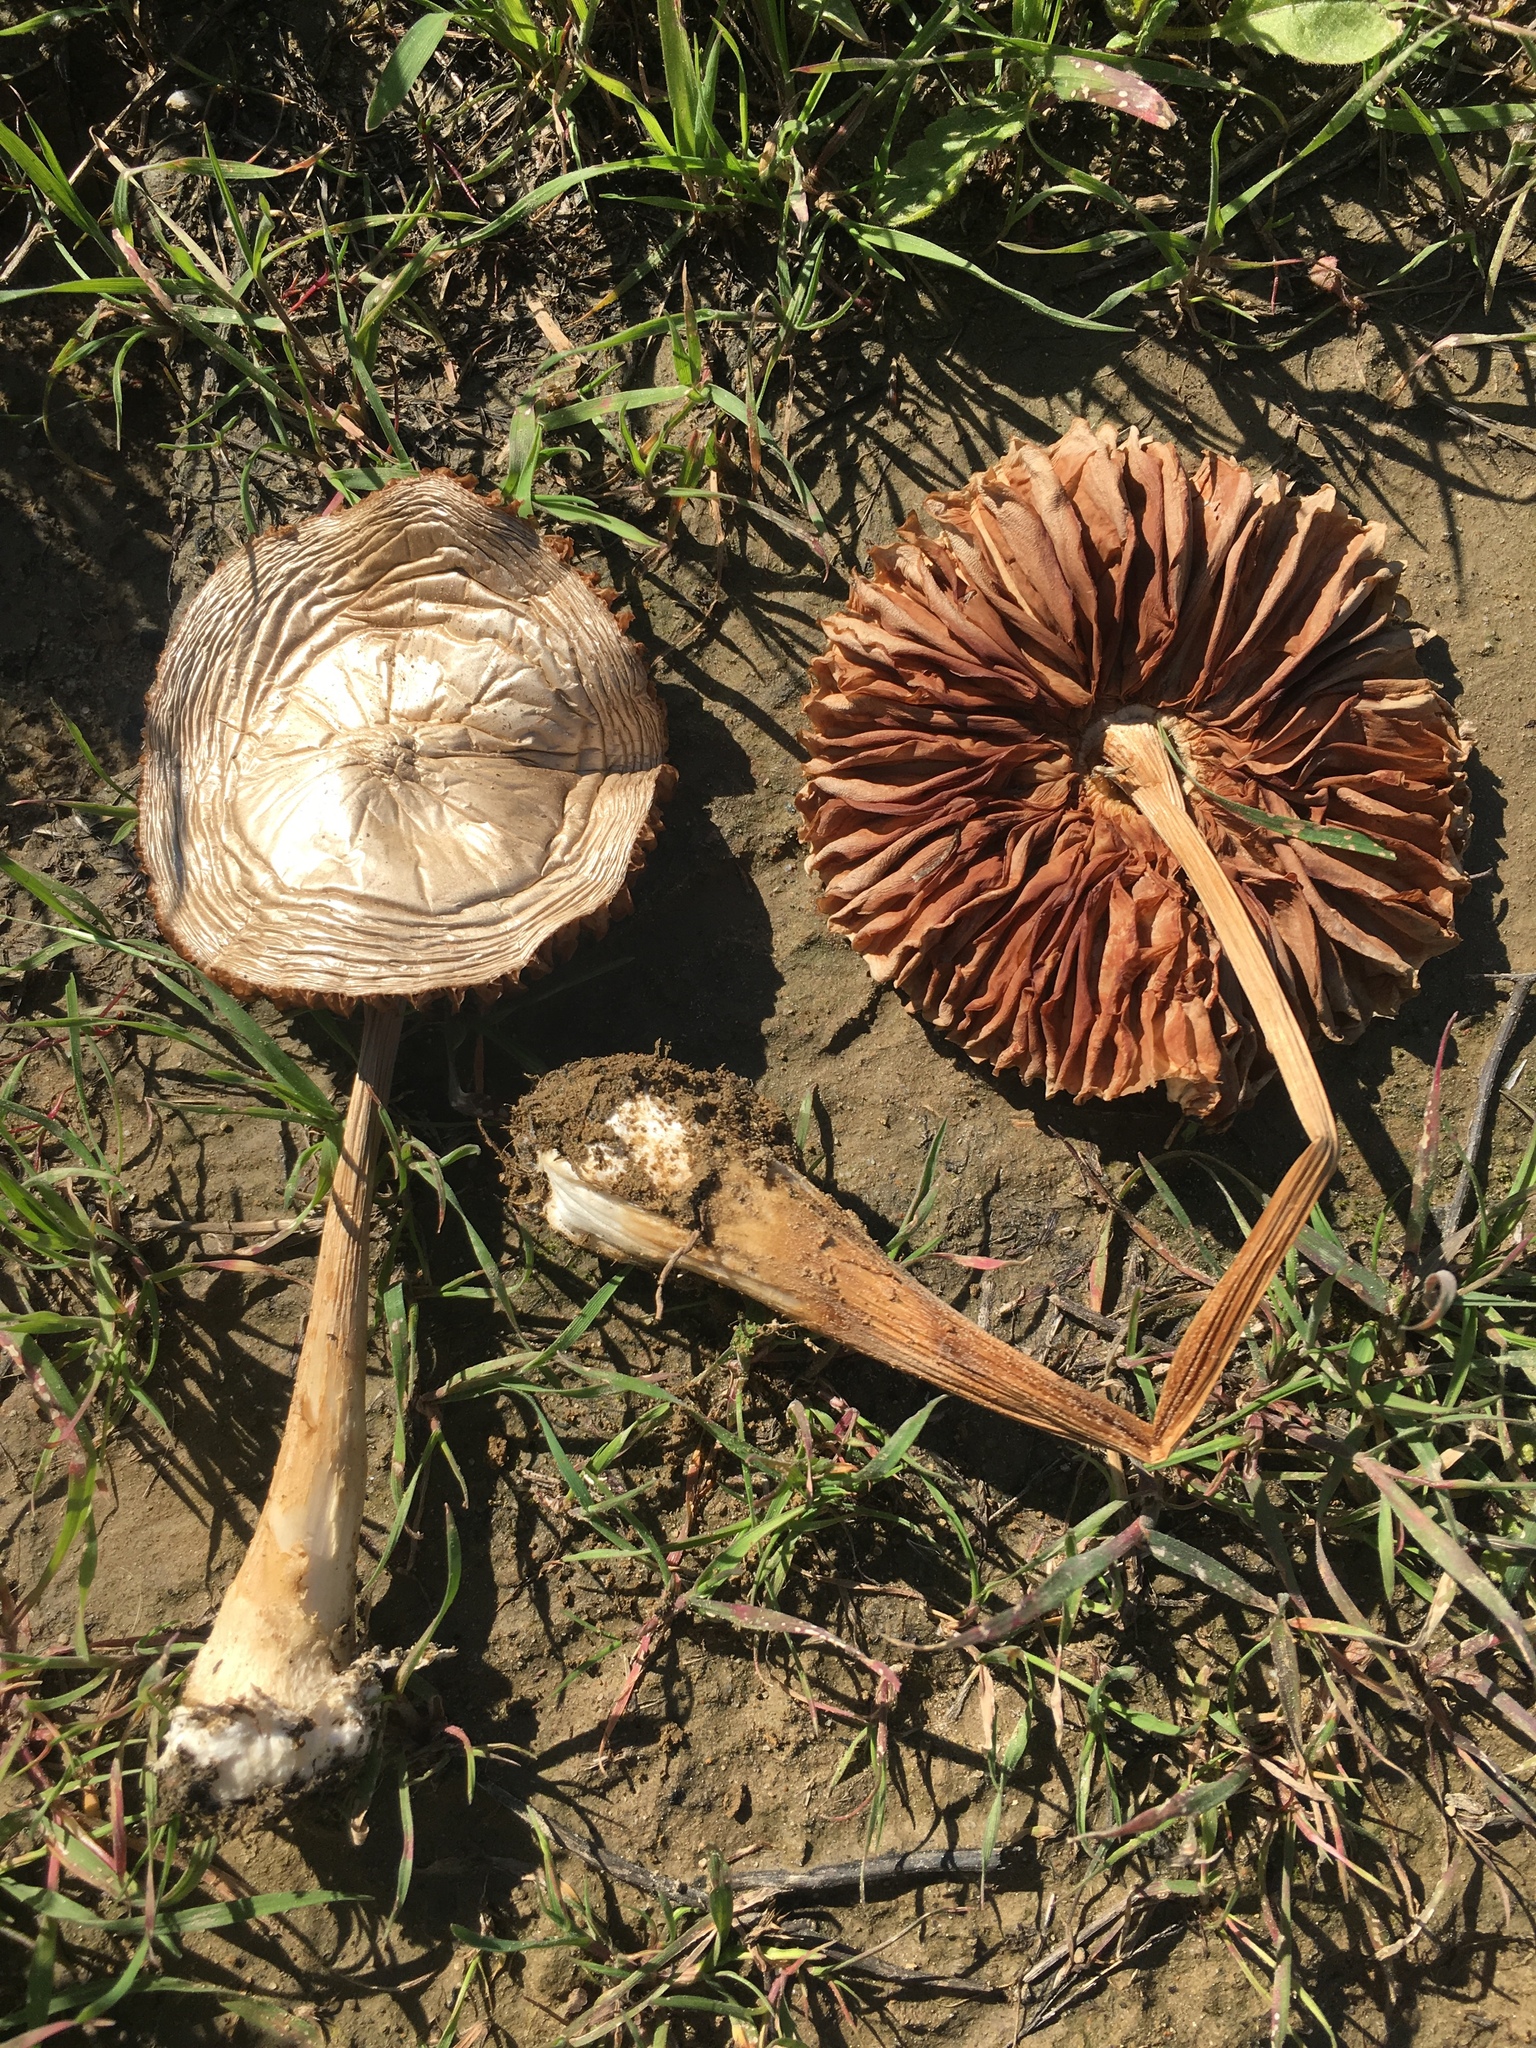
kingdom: Fungi
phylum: Basidiomycota
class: Agaricomycetes
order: Agaricales
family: Pluteaceae
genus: Volvopluteus
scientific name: Volvopluteus gloiocephalus
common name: Stubble rosegill
